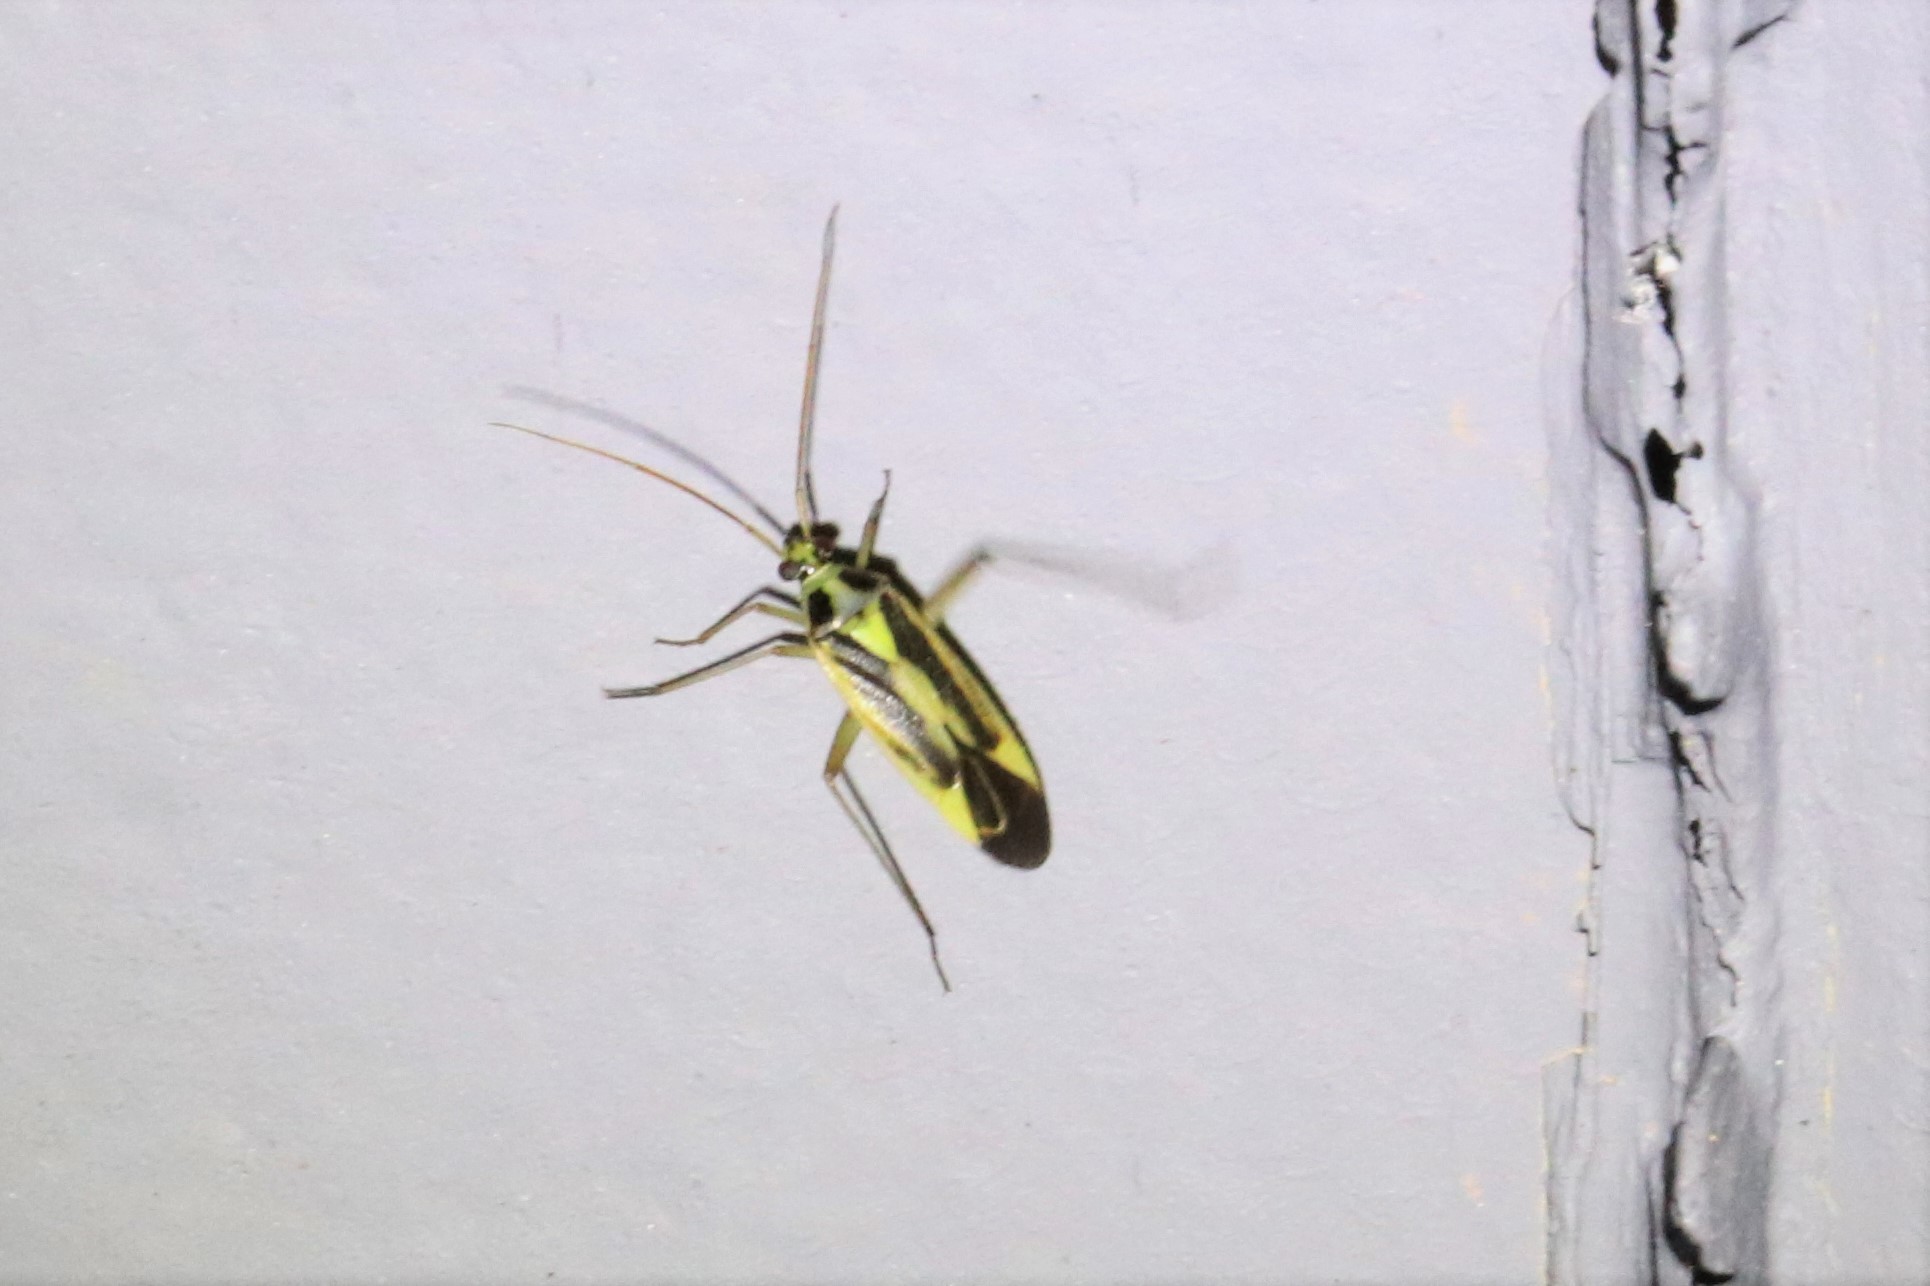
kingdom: Animalia
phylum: Arthropoda
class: Insecta
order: Hemiptera
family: Miridae
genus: Stenotus
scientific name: Stenotus binotatus
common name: Plant bug
